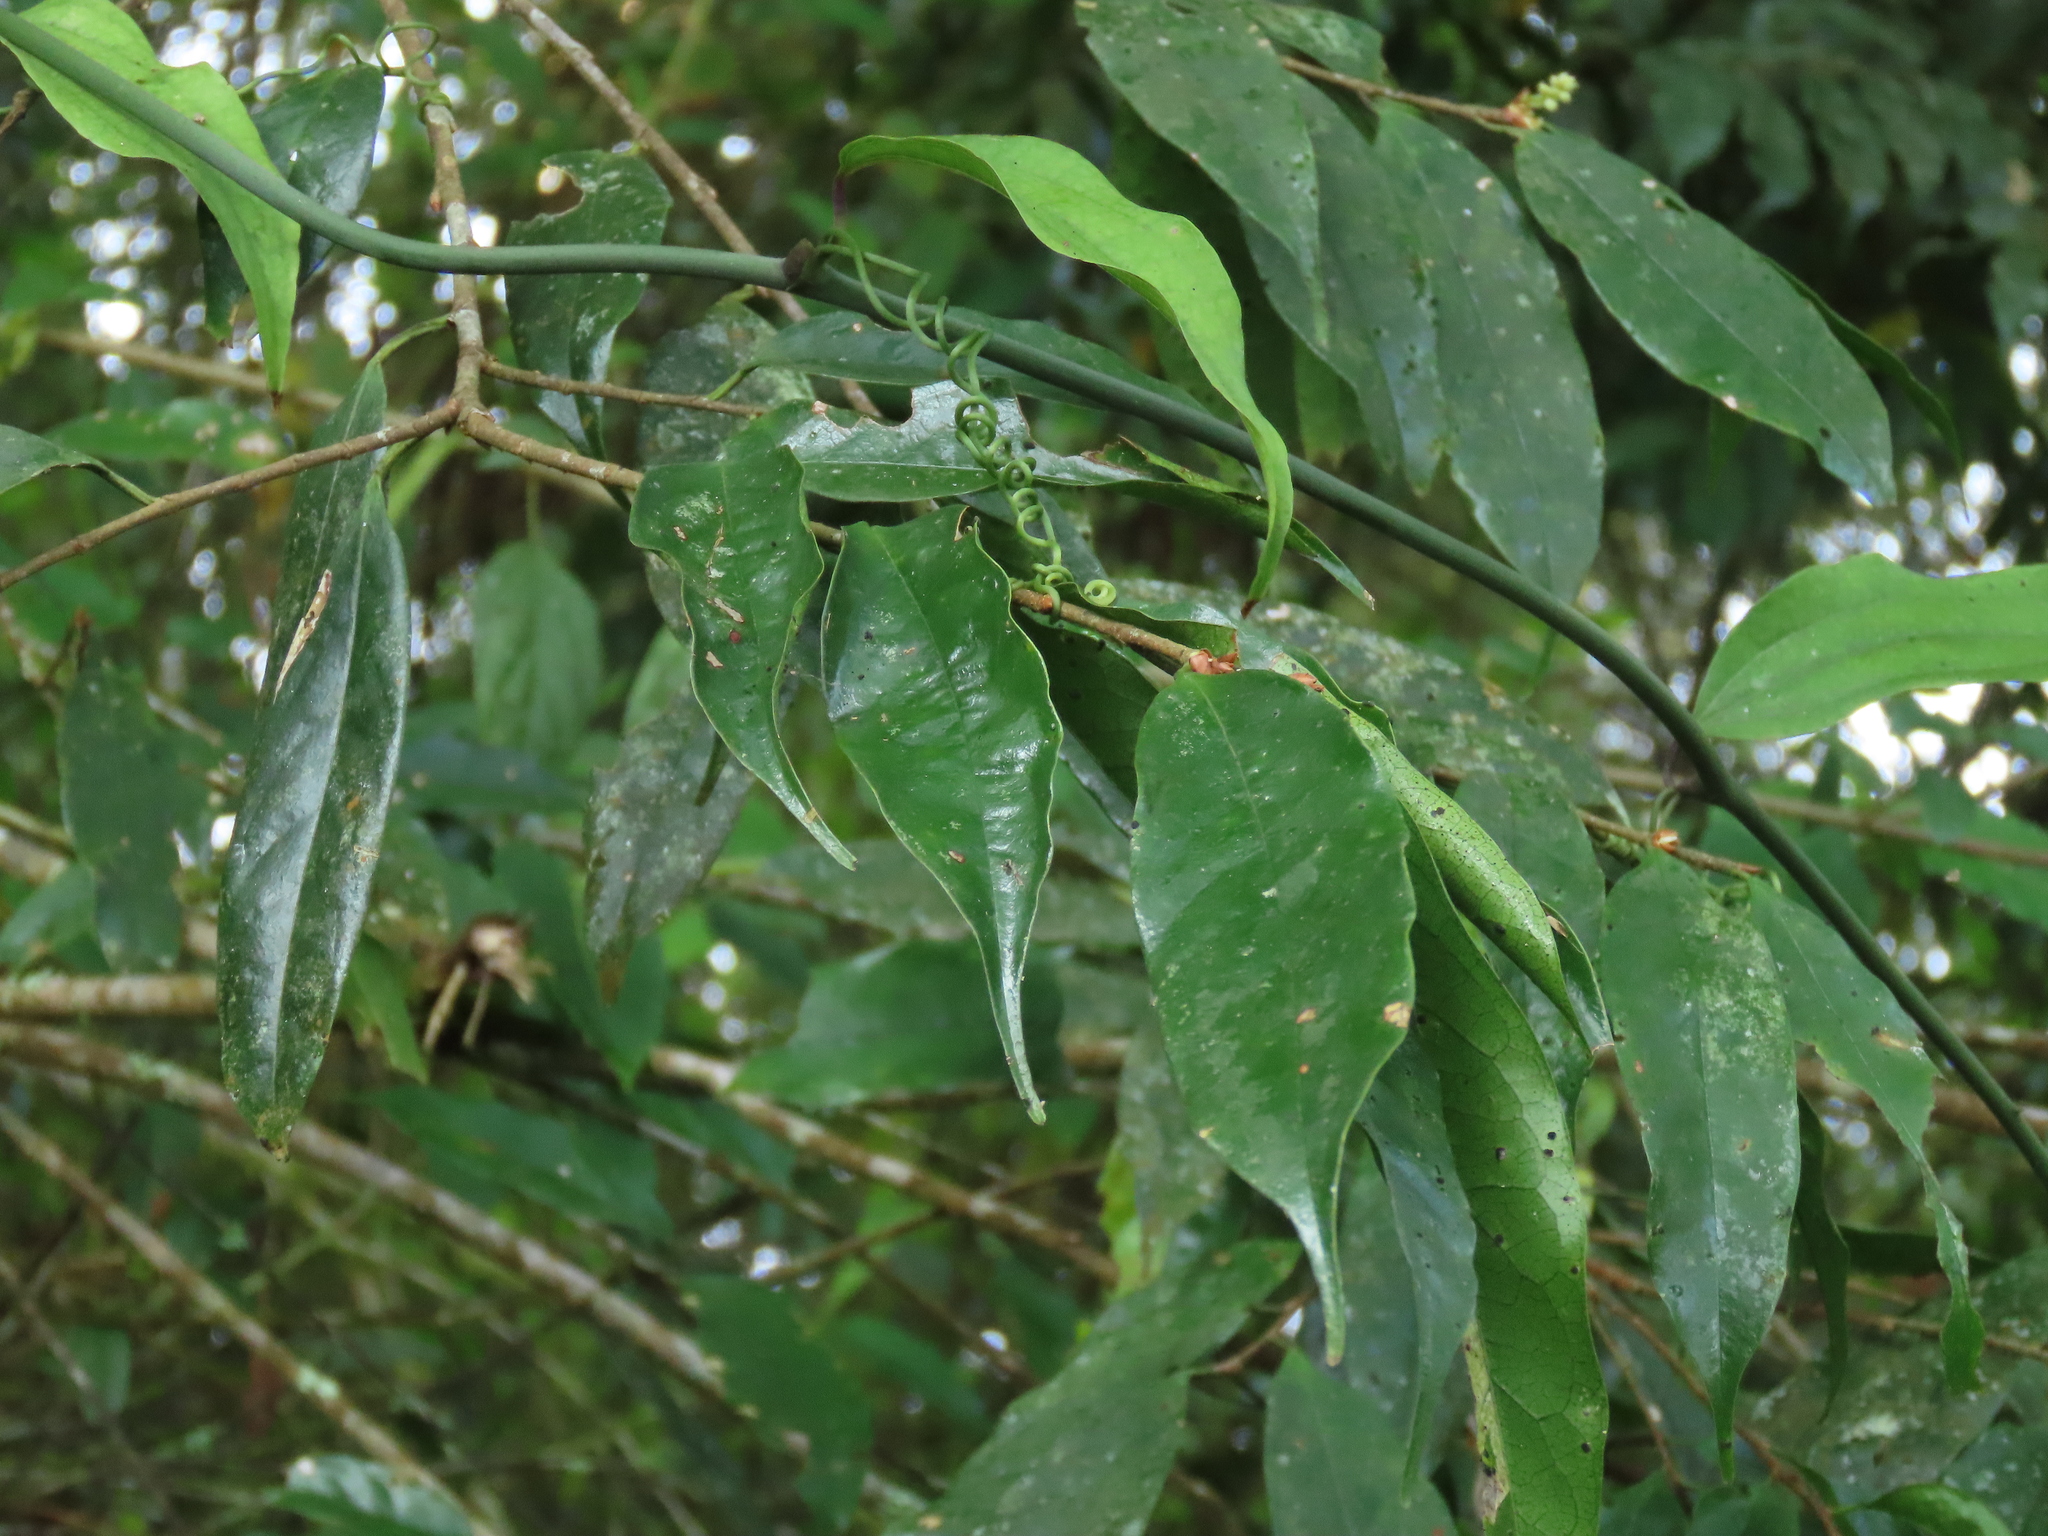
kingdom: Plantae
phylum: Tracheophyta
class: Magnoliopsida
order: Rosales
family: Rosaceae
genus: Prunus
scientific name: Prunus phaeosticta
